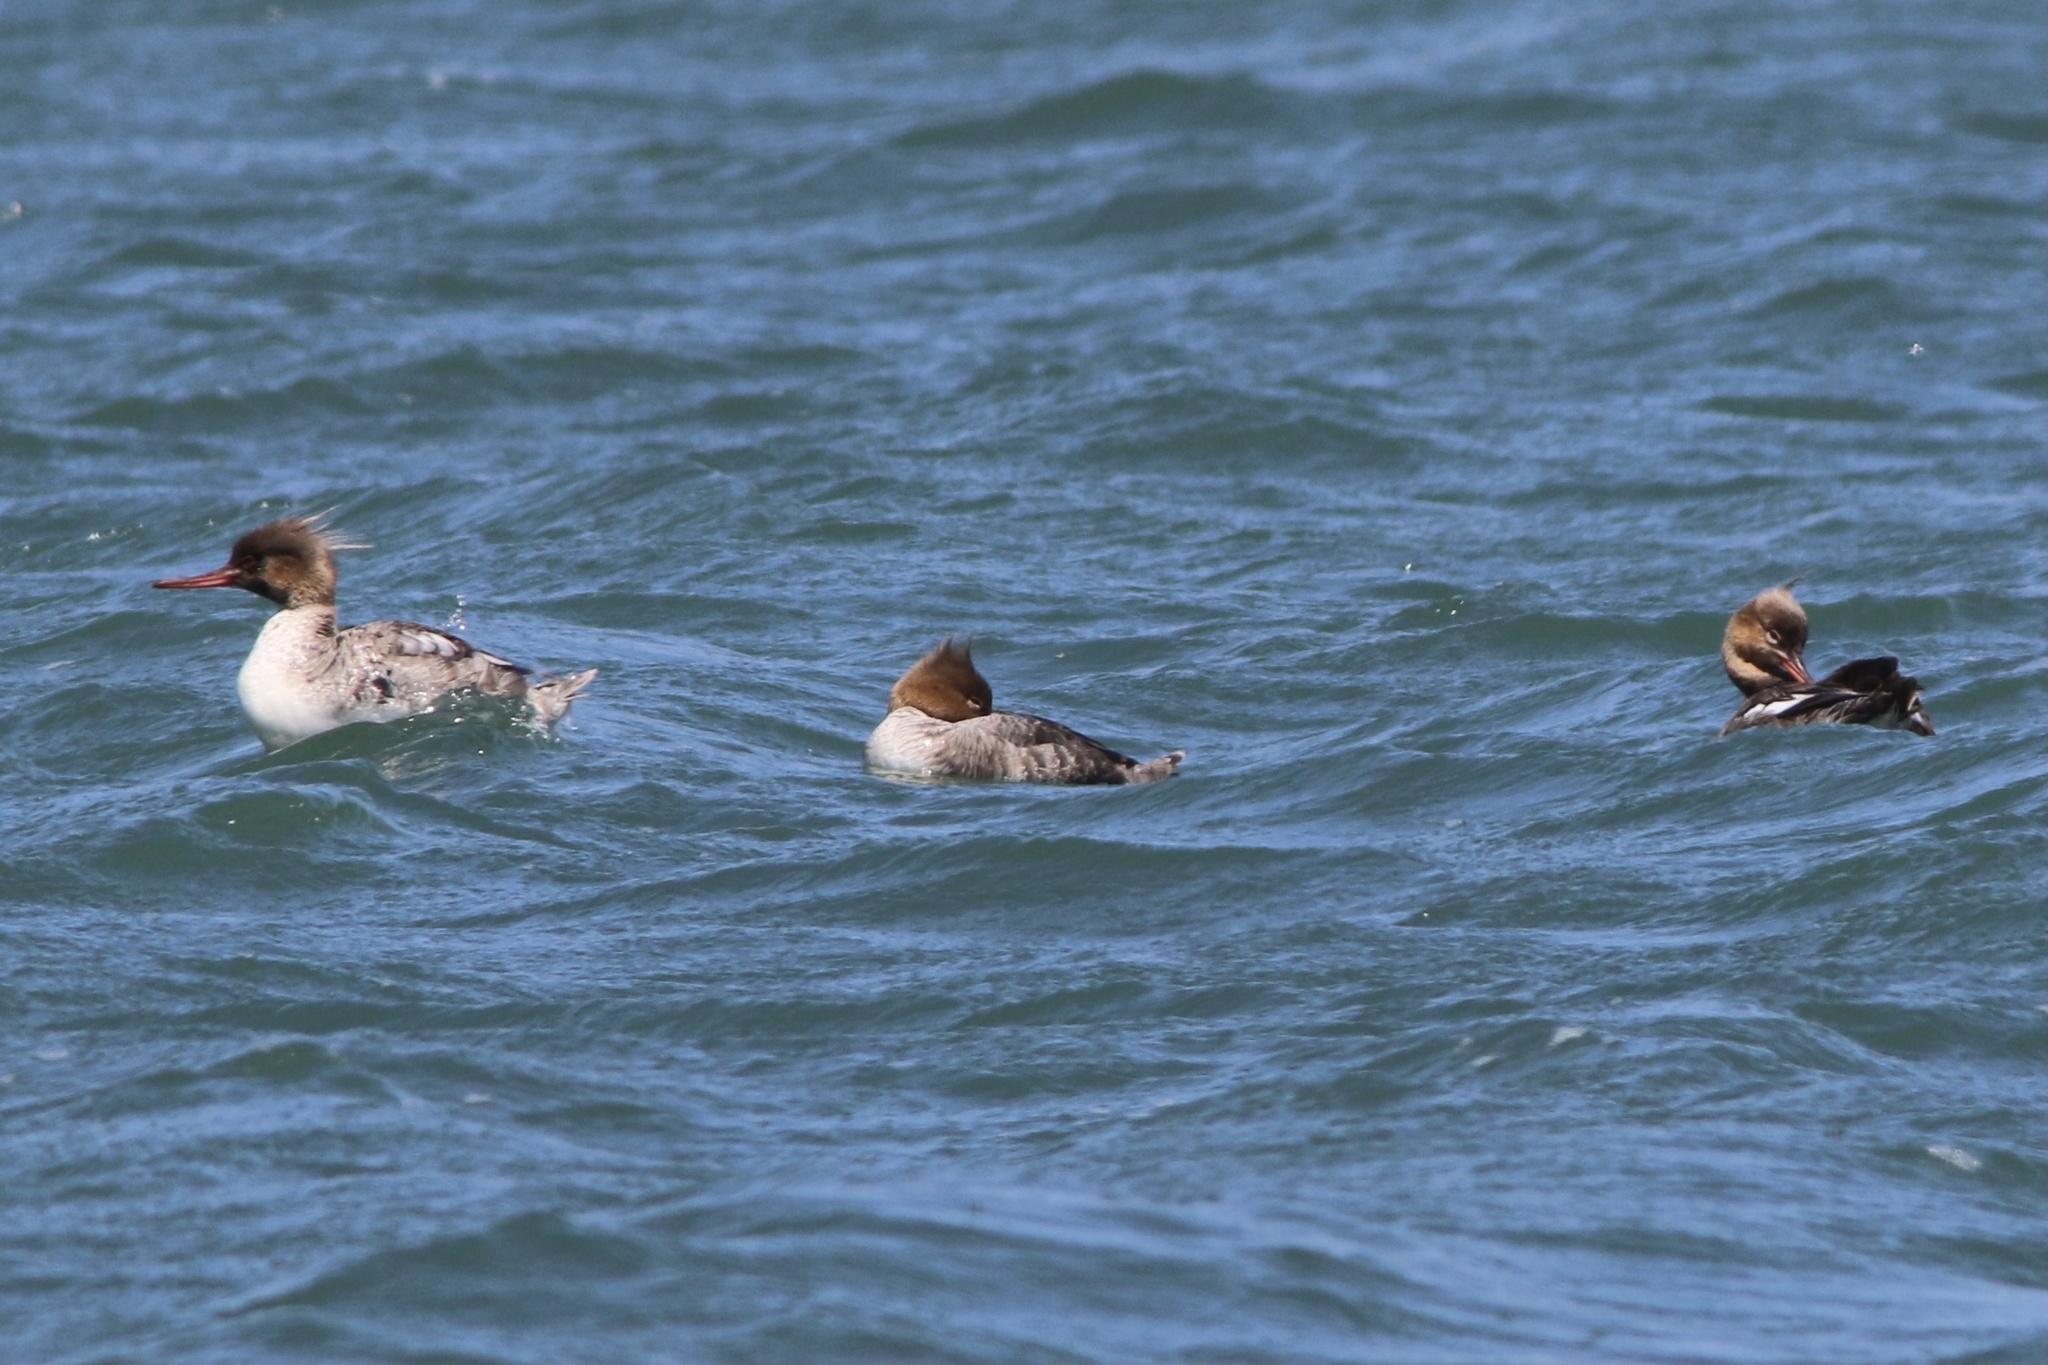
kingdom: Animalia
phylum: Chordata
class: Aves
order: Anseriformes
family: Anatidae
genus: Mergus
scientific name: Mergus serrator
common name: Red-breasted merganser
